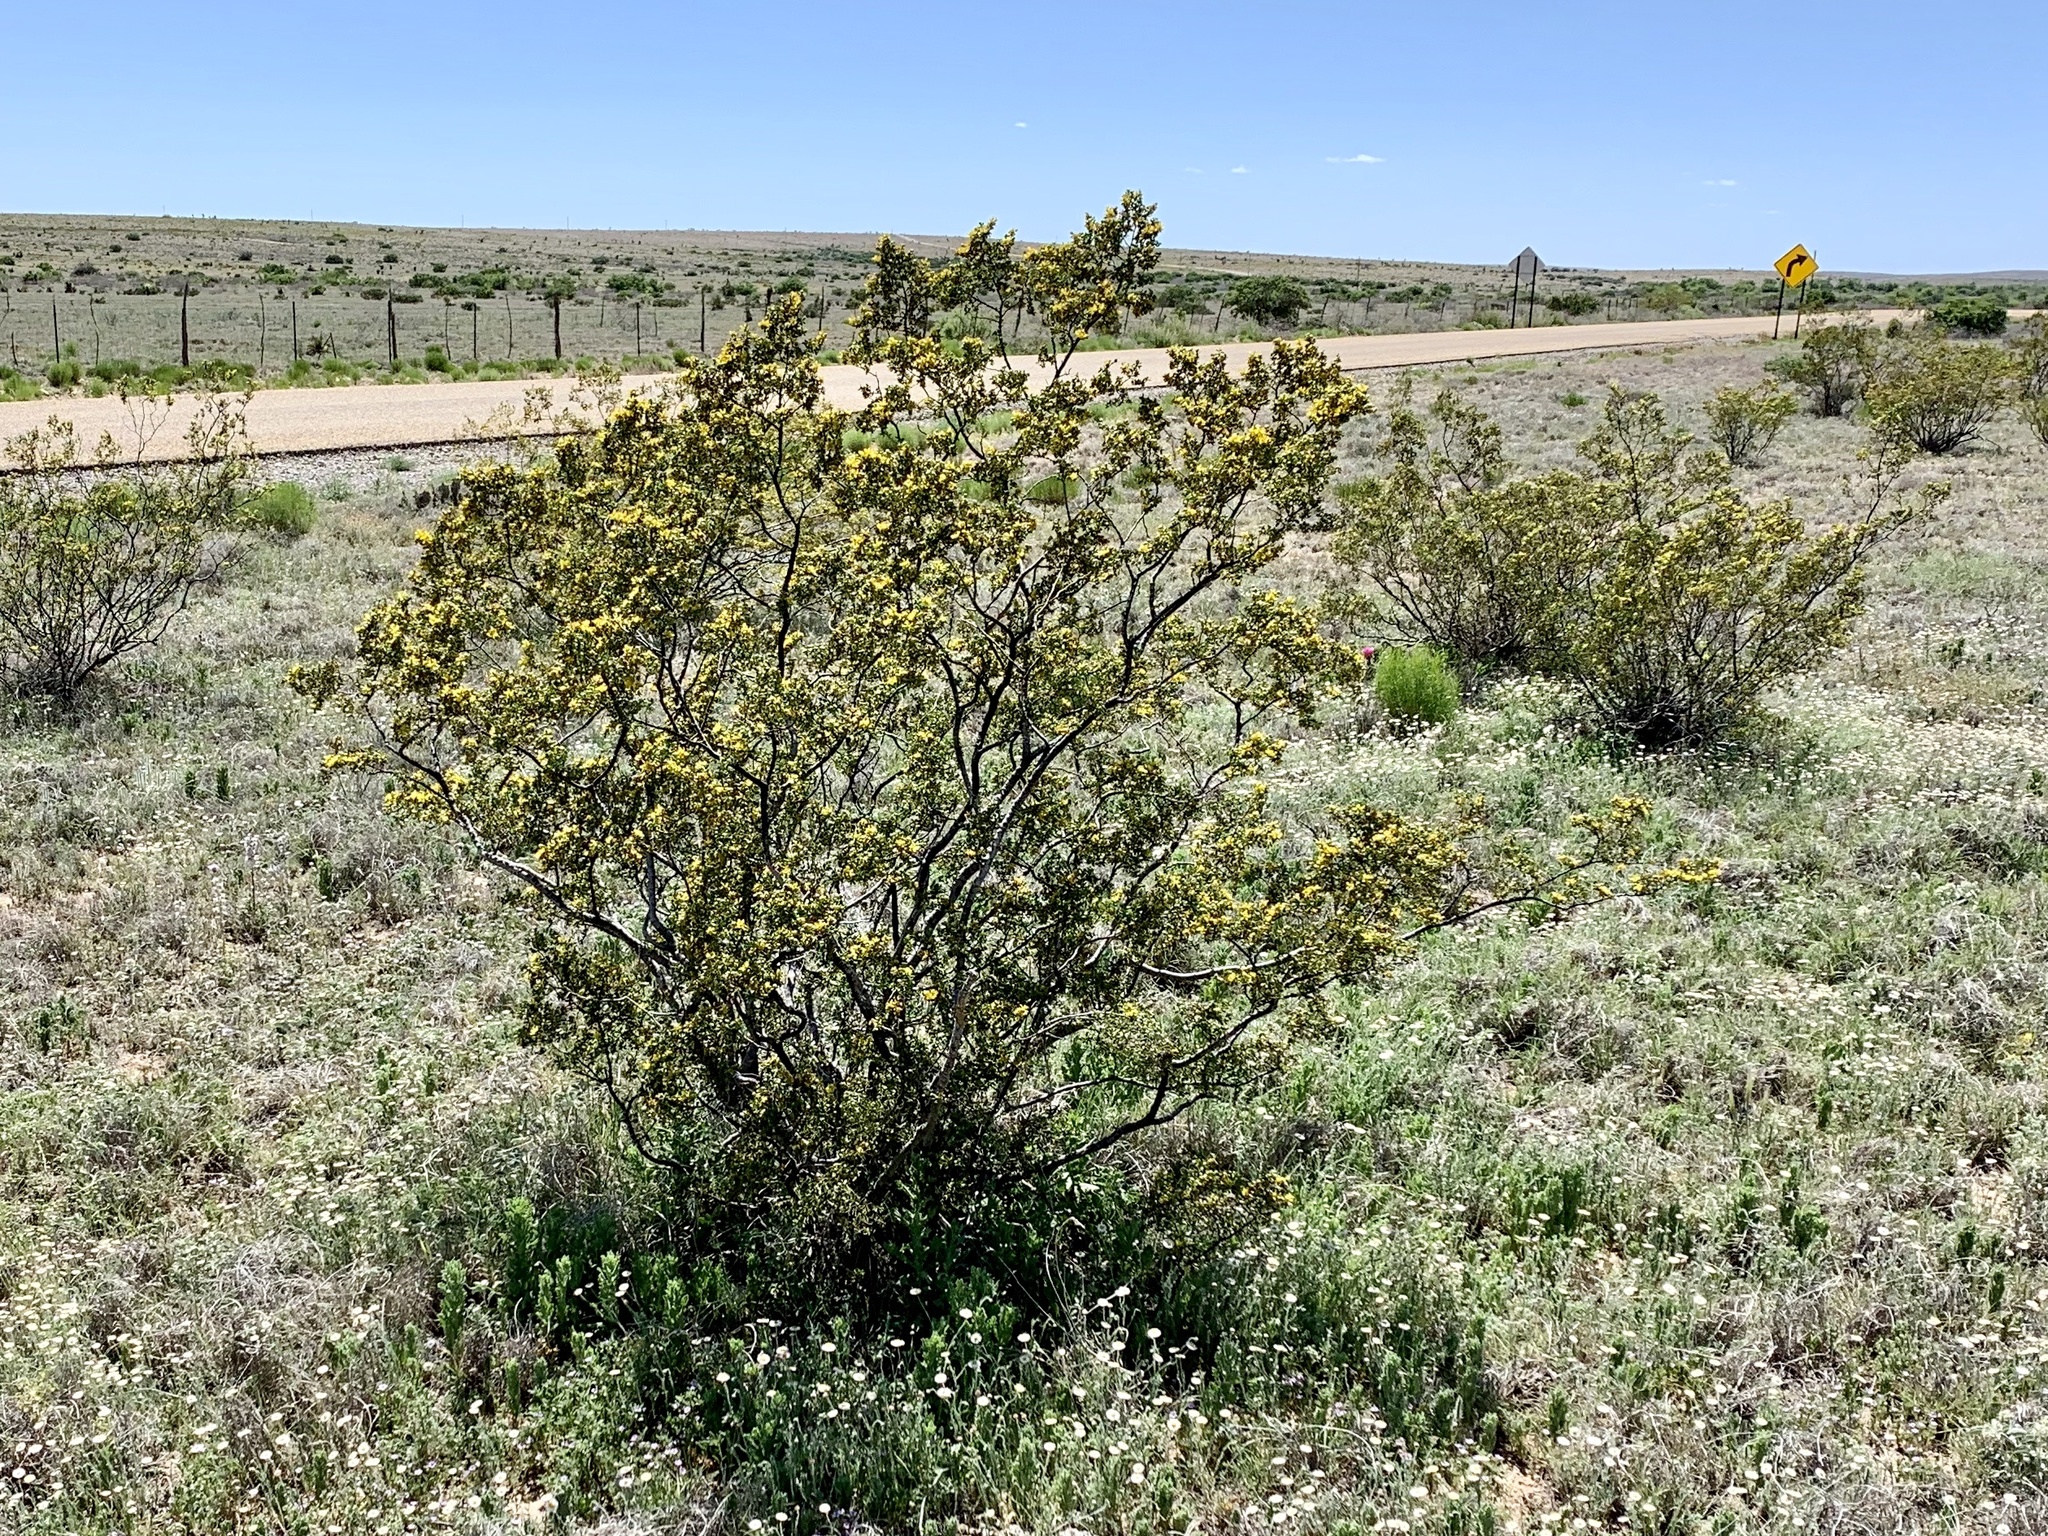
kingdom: Plantae
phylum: Tracheophyta
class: Magnoliopsida
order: Zygophyllales
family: Zygophyllaceae
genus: Larrea
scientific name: Larrea tridentata
